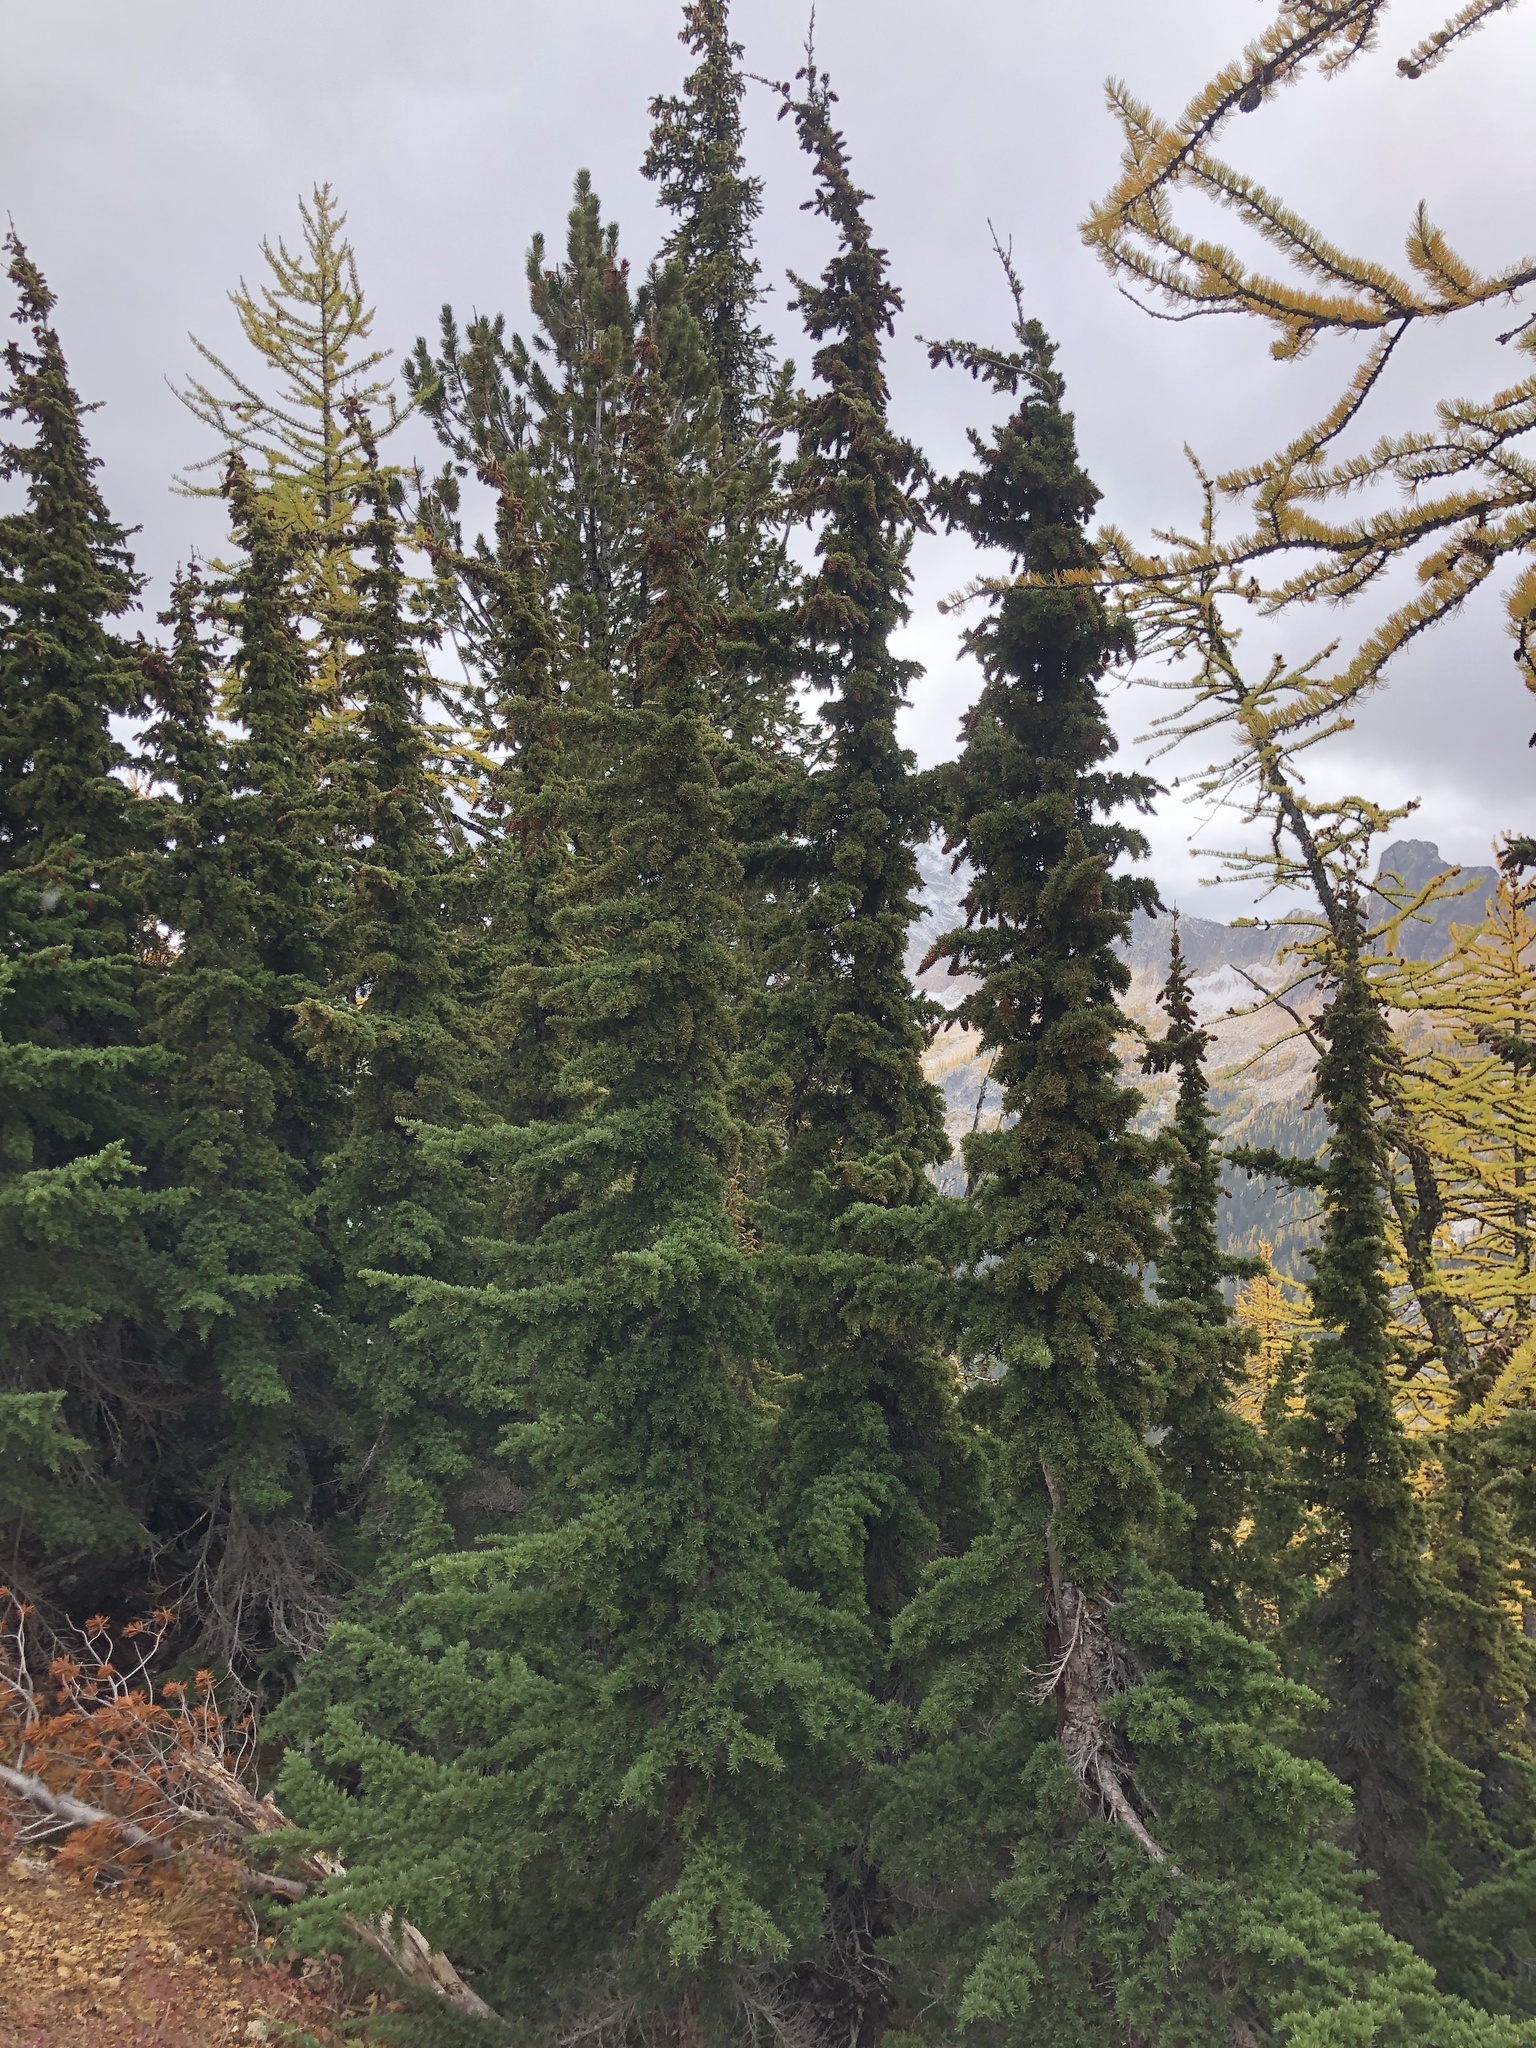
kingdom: Plantae
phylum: Tracheophyta
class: Pinopsida
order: Pinales
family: Pinaceae
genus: Tsuga
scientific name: Tsuga mertensiana
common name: Mountain hemlock
